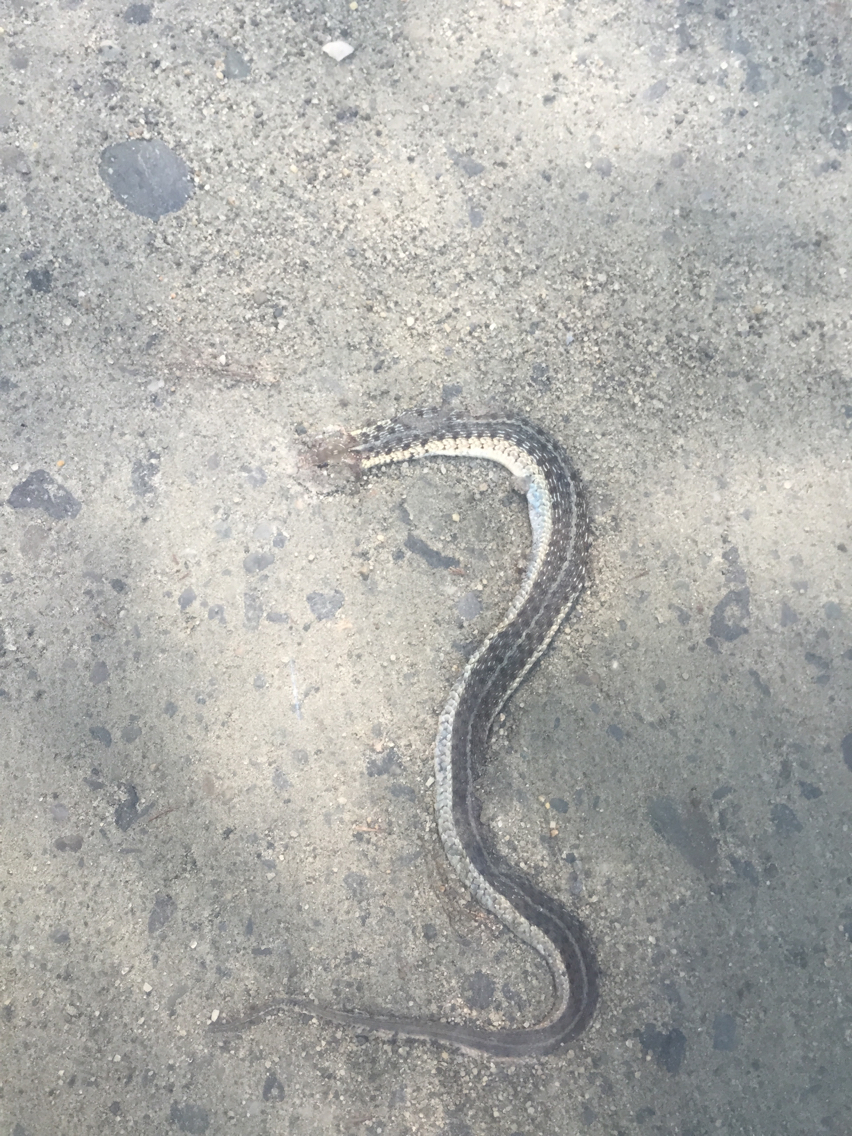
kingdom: Animalia
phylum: Chordata
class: Squamata
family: Colubridae
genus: Thamnophis
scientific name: Thamnophis sirtalis
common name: Common garter snake
